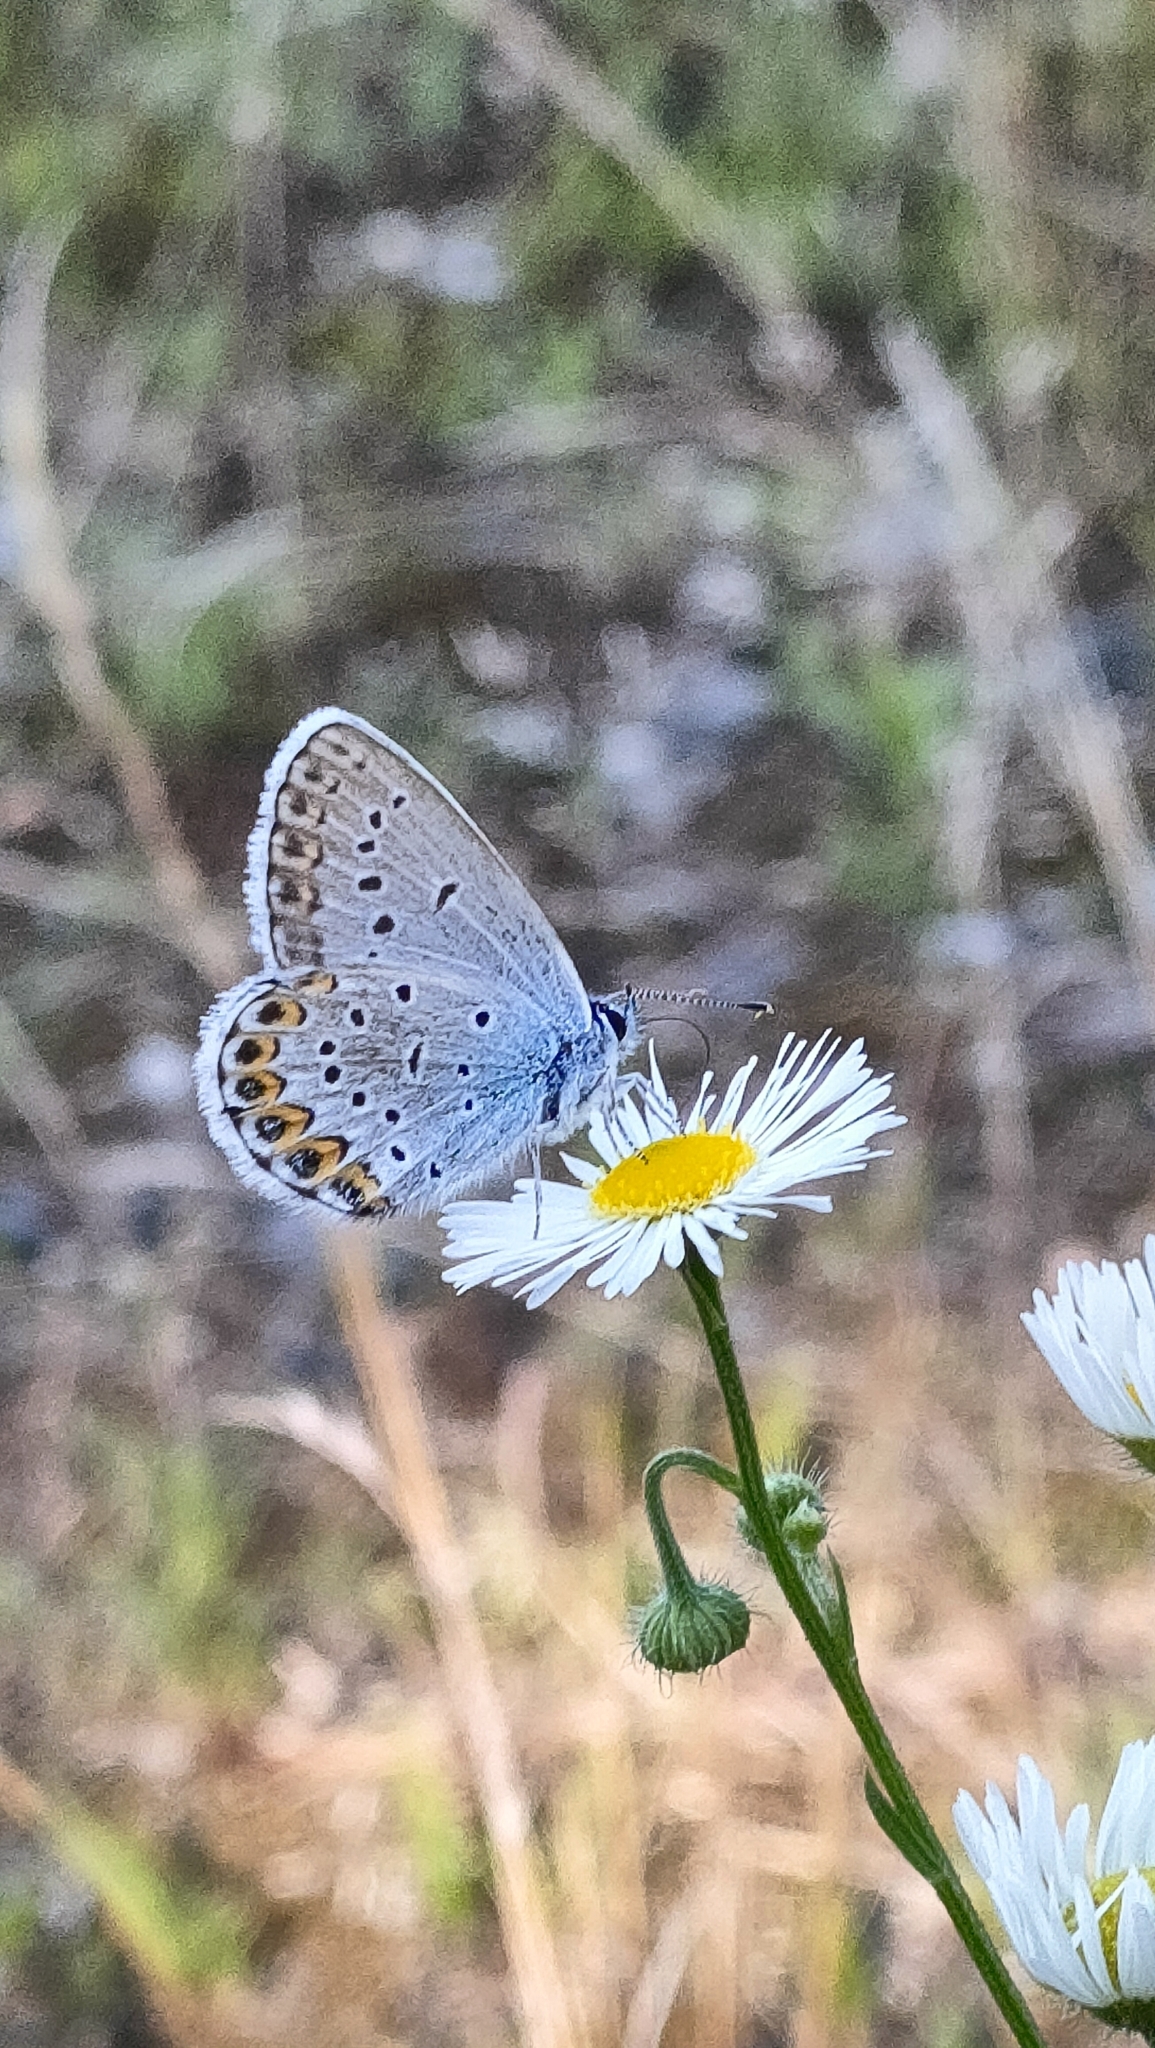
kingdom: Animalia
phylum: Arthropoda
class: Insecta
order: Lepidoptera
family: Lycaenidae
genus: Lycaeides
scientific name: Lycaeides idas
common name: Northern blue
